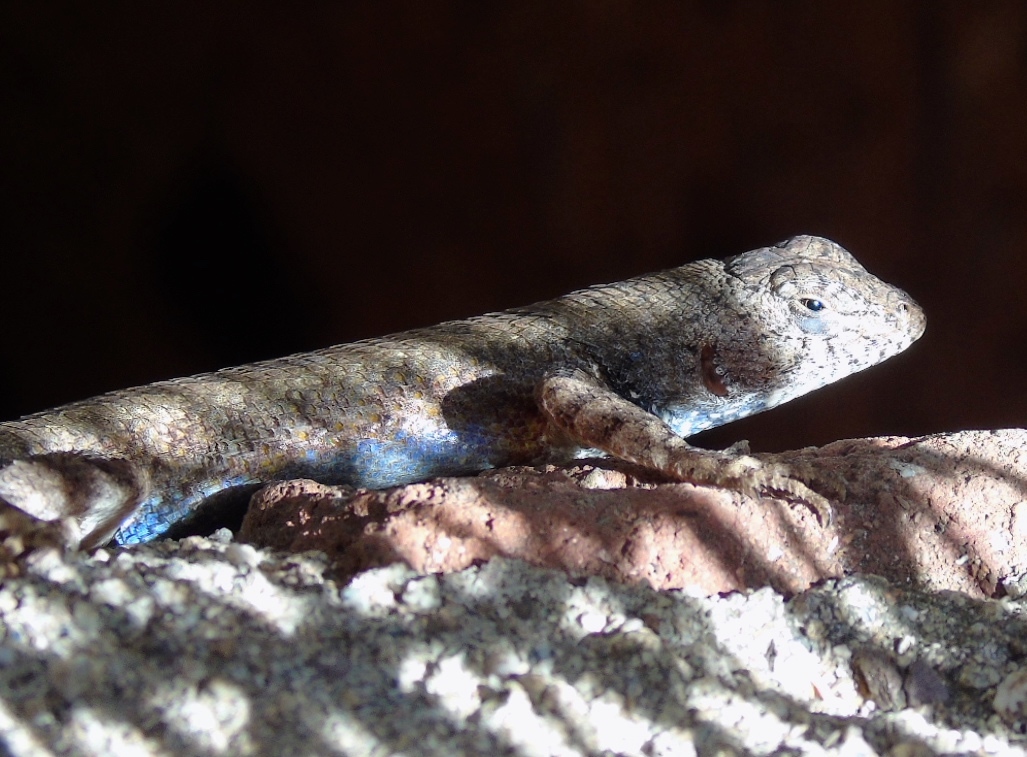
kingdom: Animalia
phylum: Chordata
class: Squamata
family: Phrynosomatidae
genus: Sceloporus
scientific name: Sceloporus nelsoni
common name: Nelson's spiny lizard
